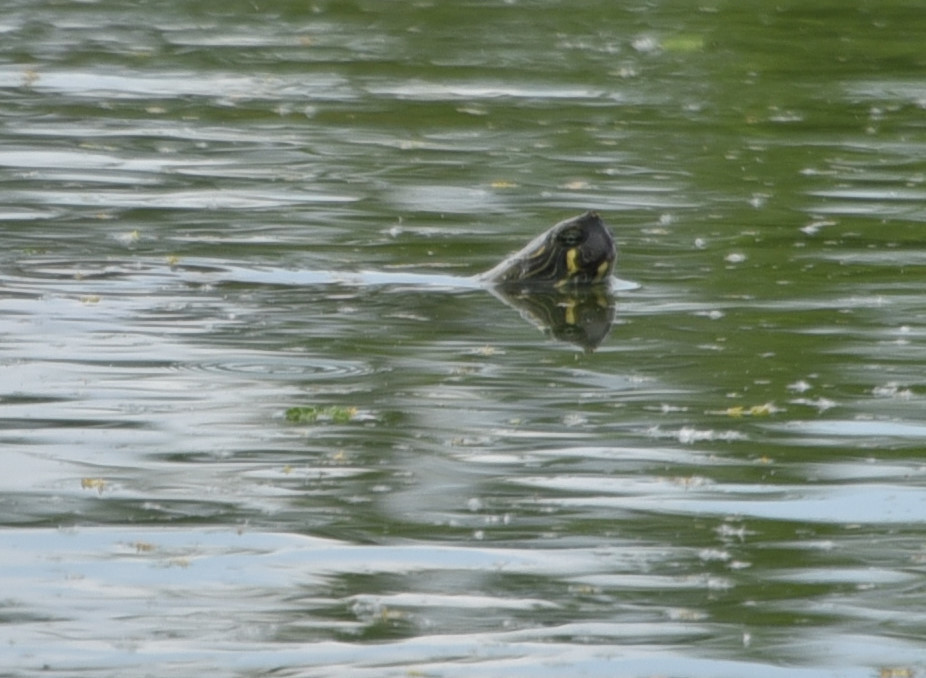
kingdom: Animalia
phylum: Chordata
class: Testudines
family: Emydidae
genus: Pseudemys
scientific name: Pseudemys texana
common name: Texas river cooter
